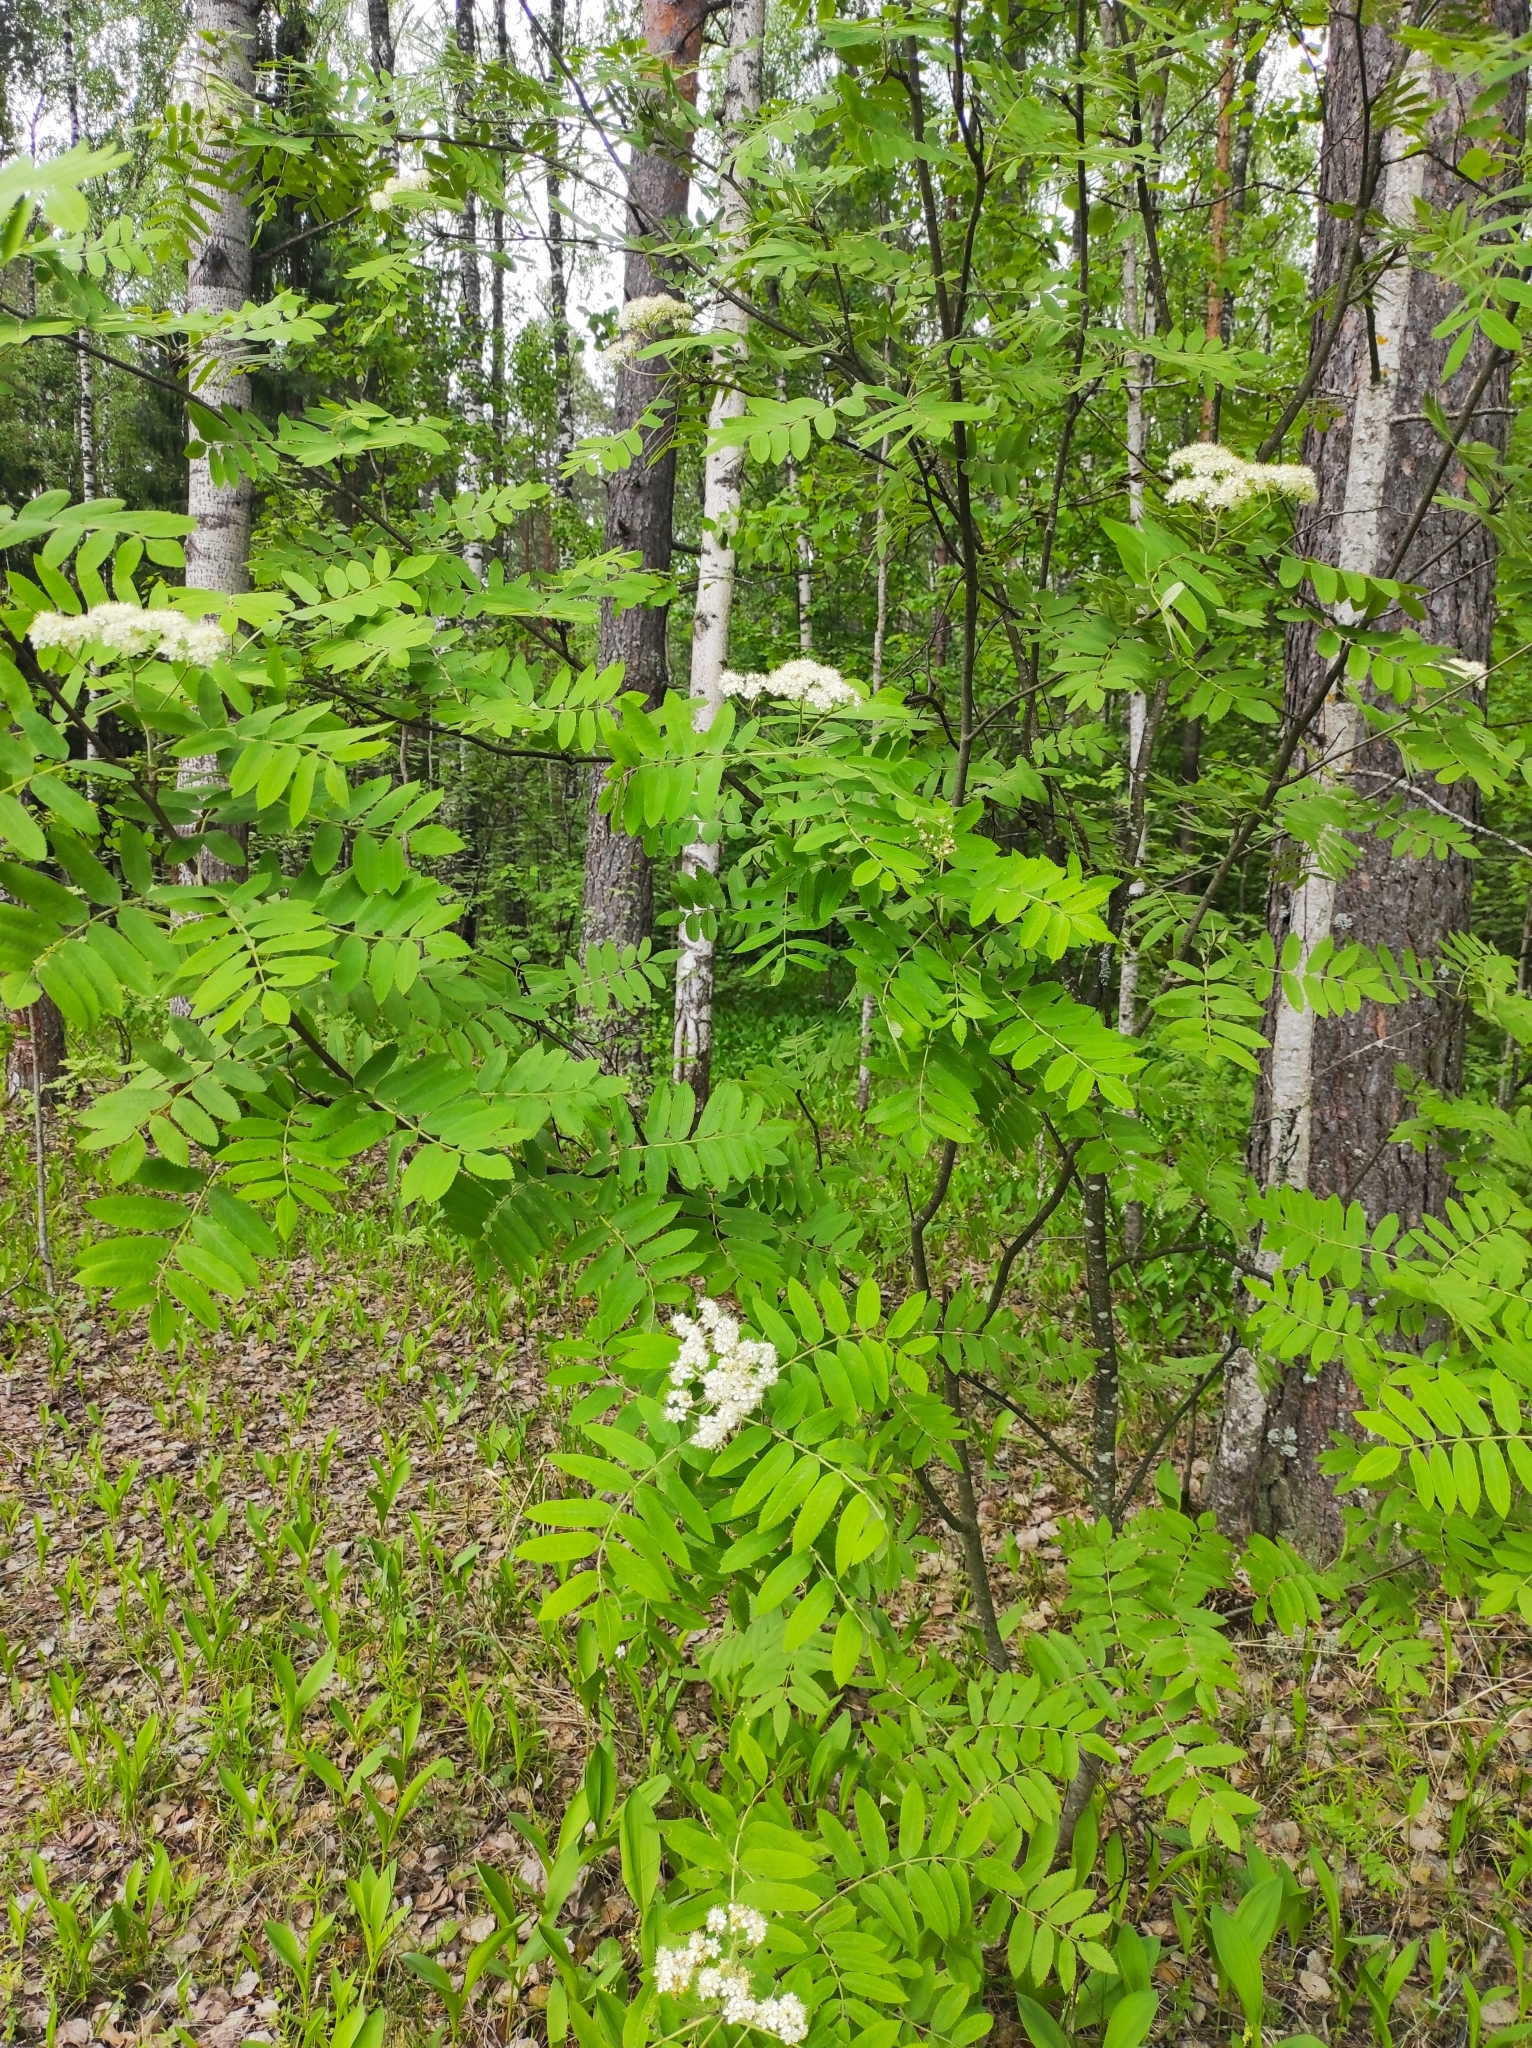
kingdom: Plantae
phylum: Tracheophyta
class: Magnoliopsida
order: Rosales
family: Rosaceae
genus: Sorbus
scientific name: Sorbus aucuparia
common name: Rowan
